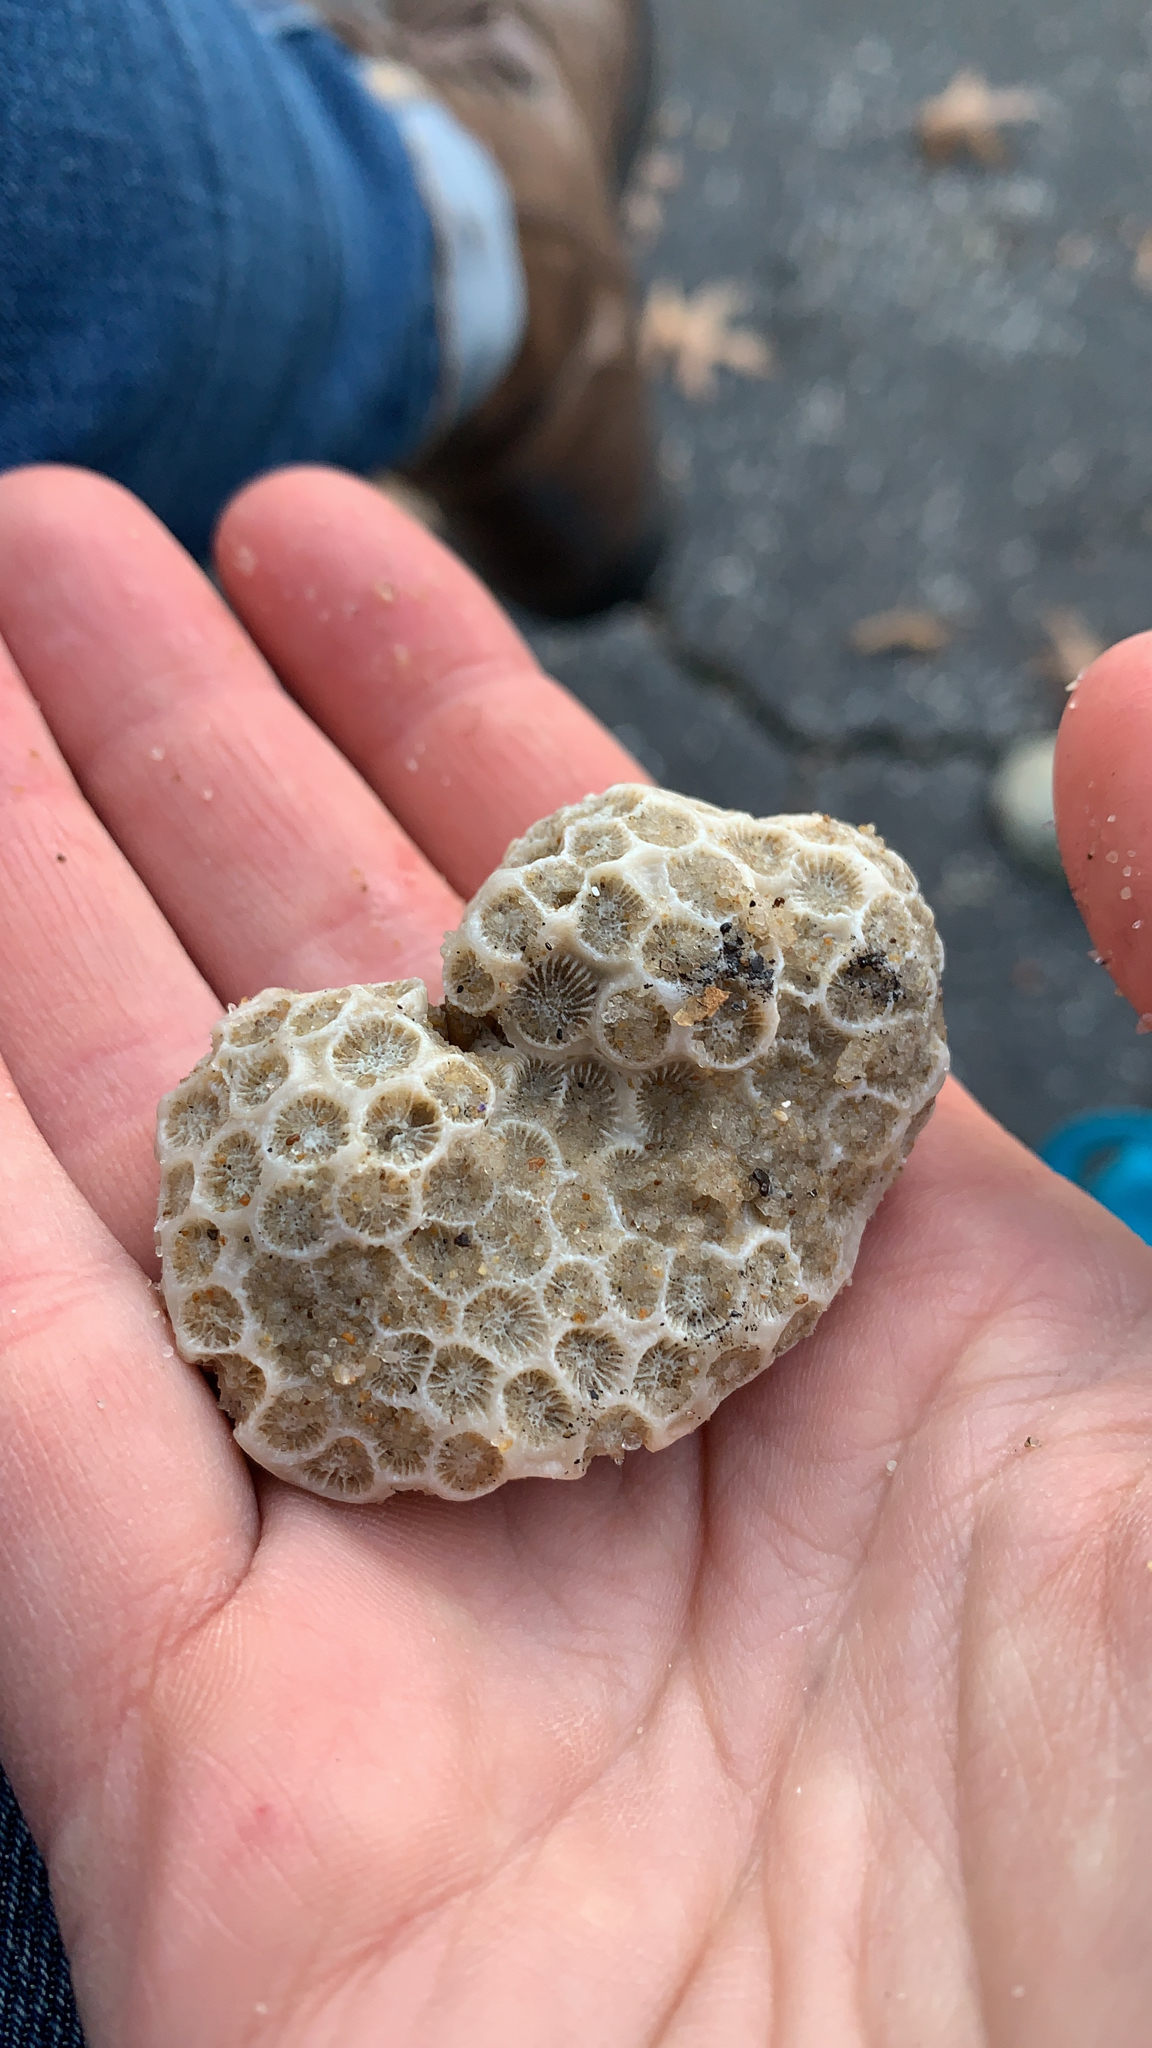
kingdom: Animalia
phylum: Cnidaria
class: Anthozoa
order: Scleractinia
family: Astrangiidae
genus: Astrangia
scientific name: Astrangia poculata
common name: Northern star coral
